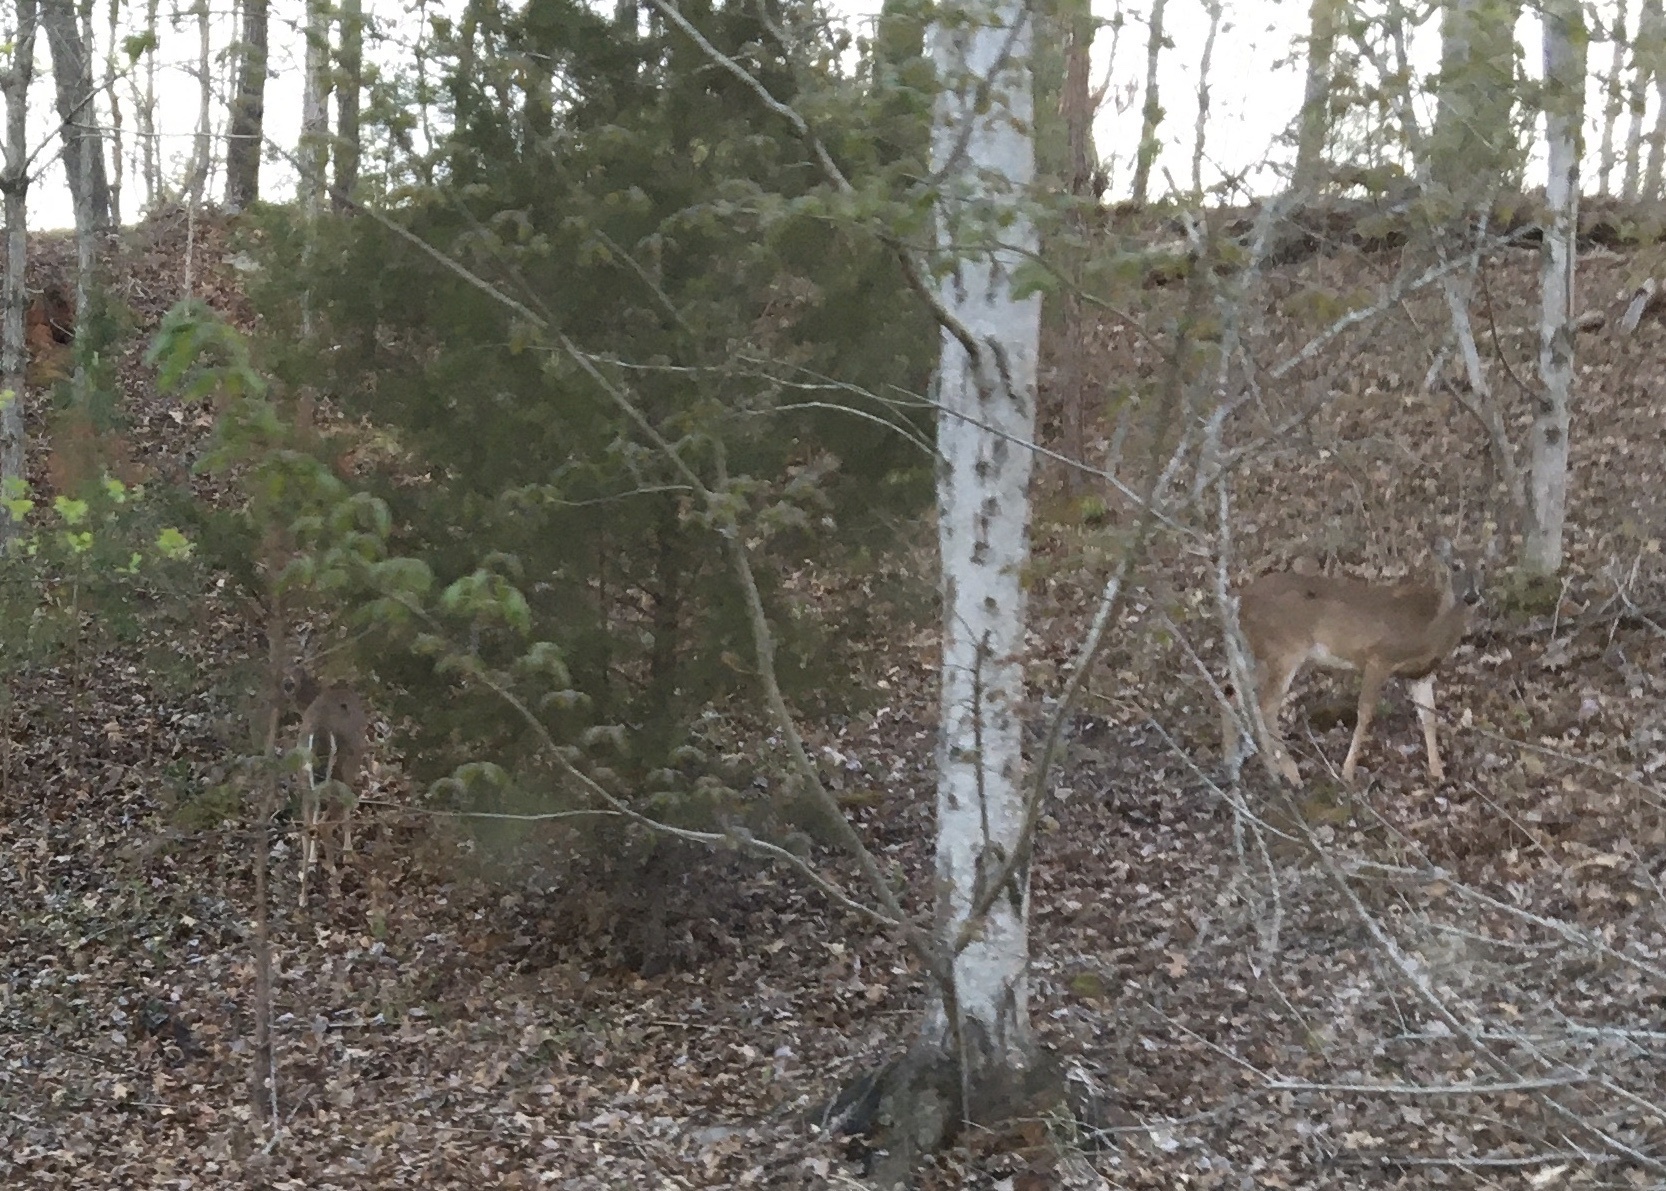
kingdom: Animalia
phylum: Chordata
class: Mammalia
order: Artiodactyla
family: Cervidae
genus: Odocoileus
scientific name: Odocoileus virginianus
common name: White-tailed deer
